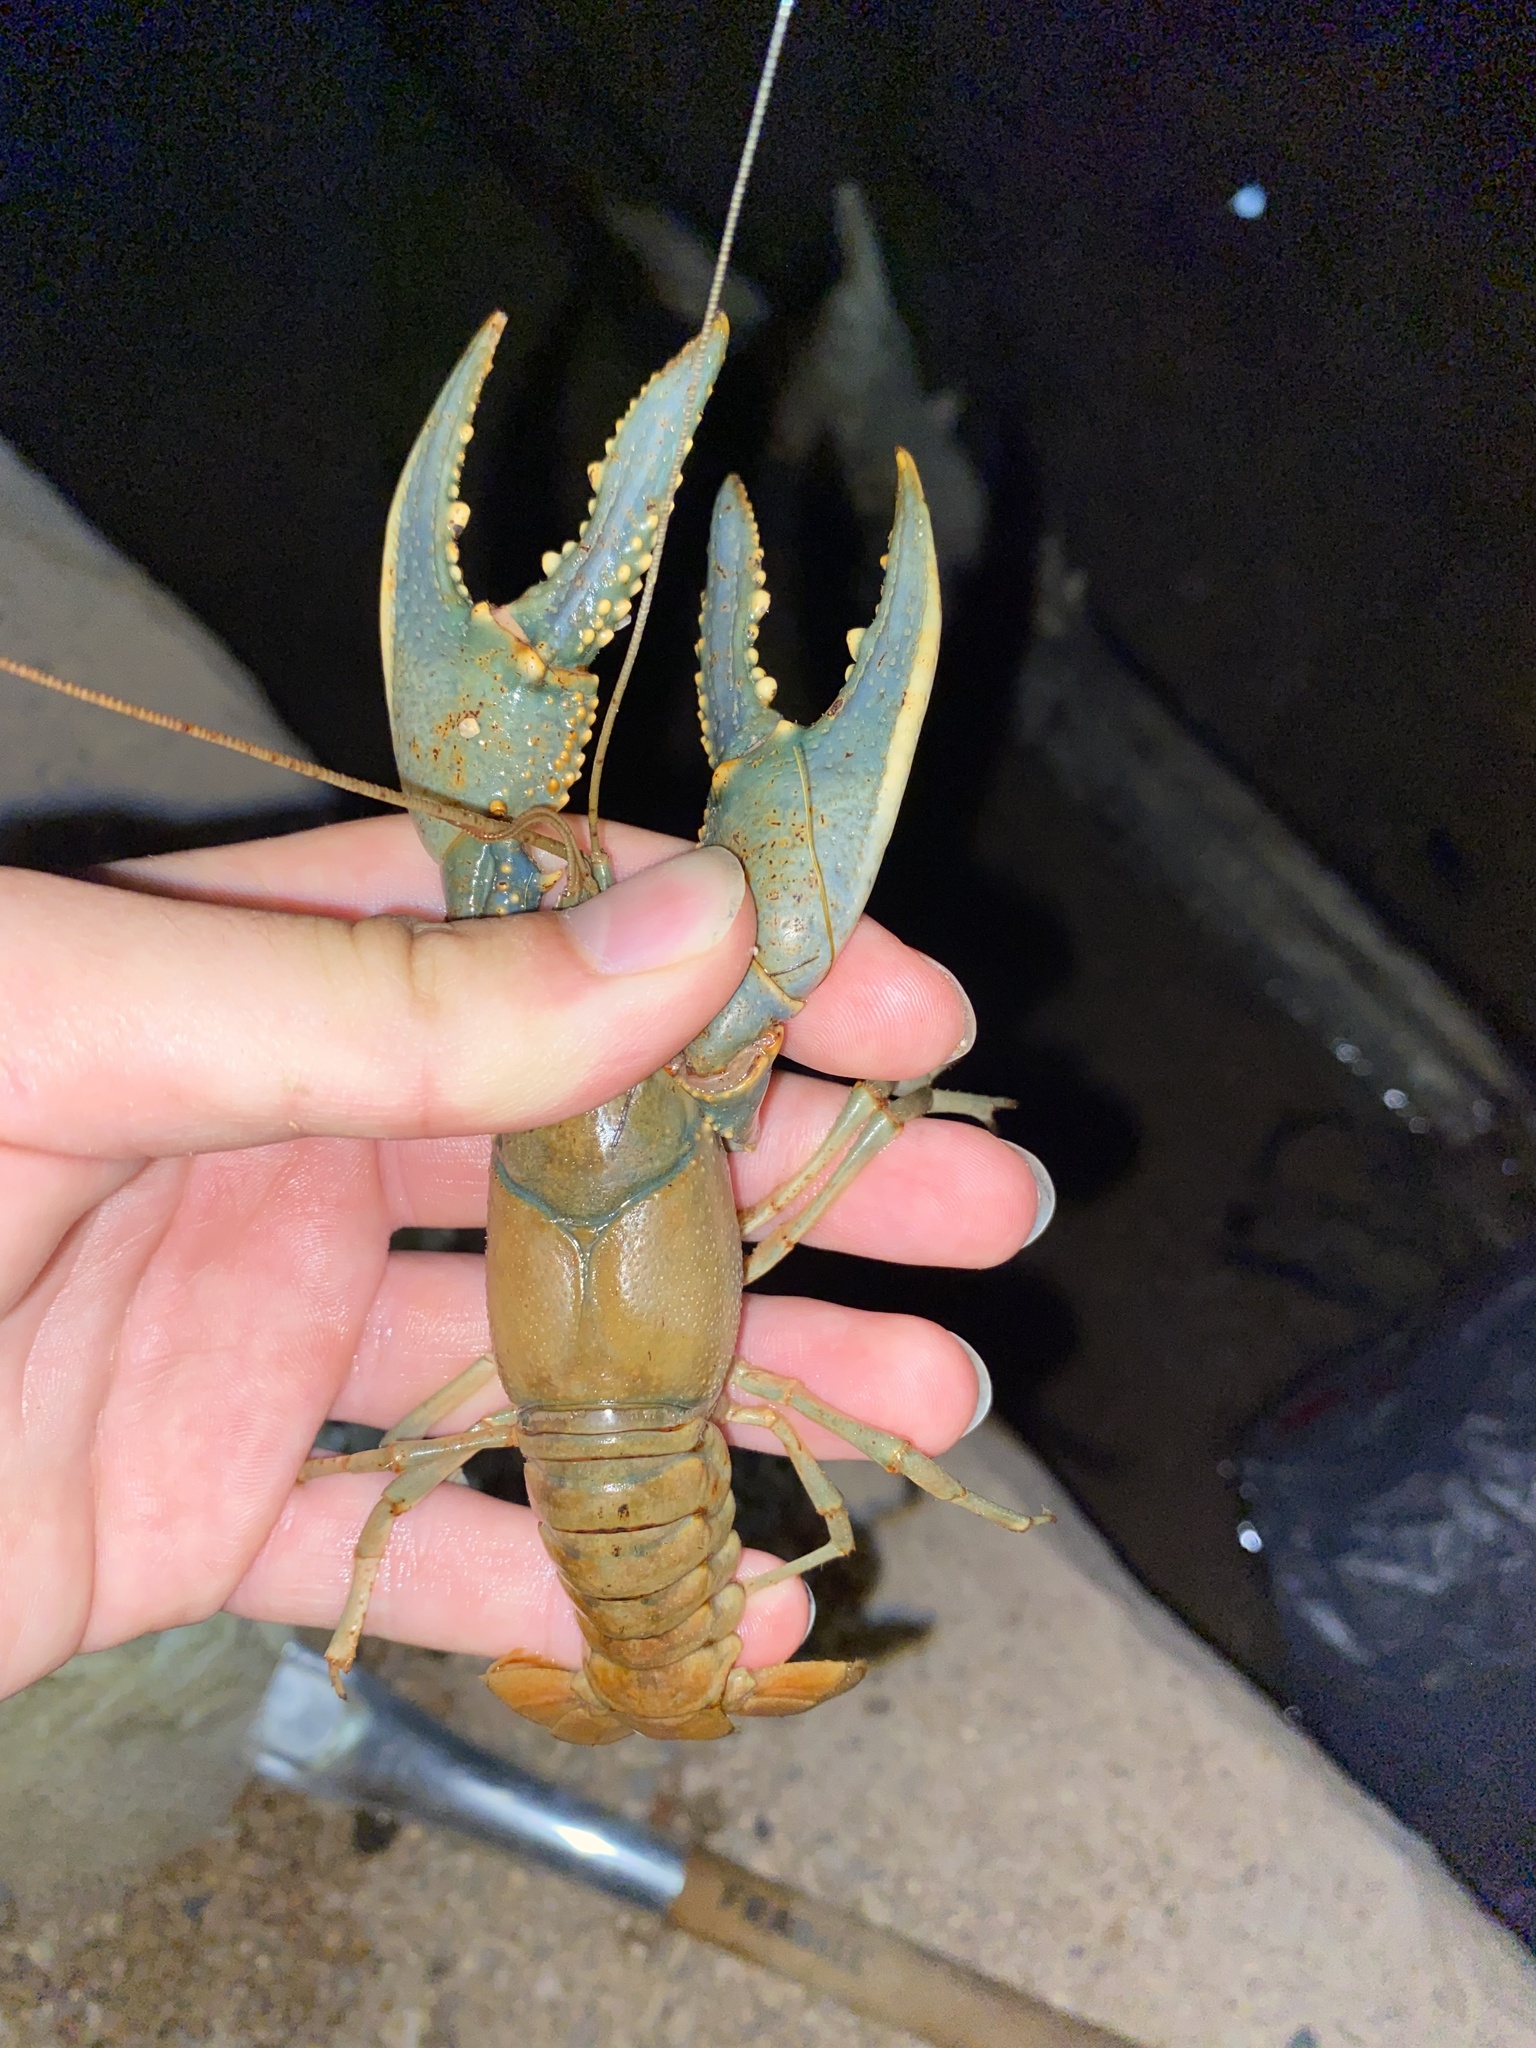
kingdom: Animalia
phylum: Arthropoda
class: Malacostraca
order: Decapoda
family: Cambaridae
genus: Faxonius
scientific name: Faxonius virilis
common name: Virile crayfish
